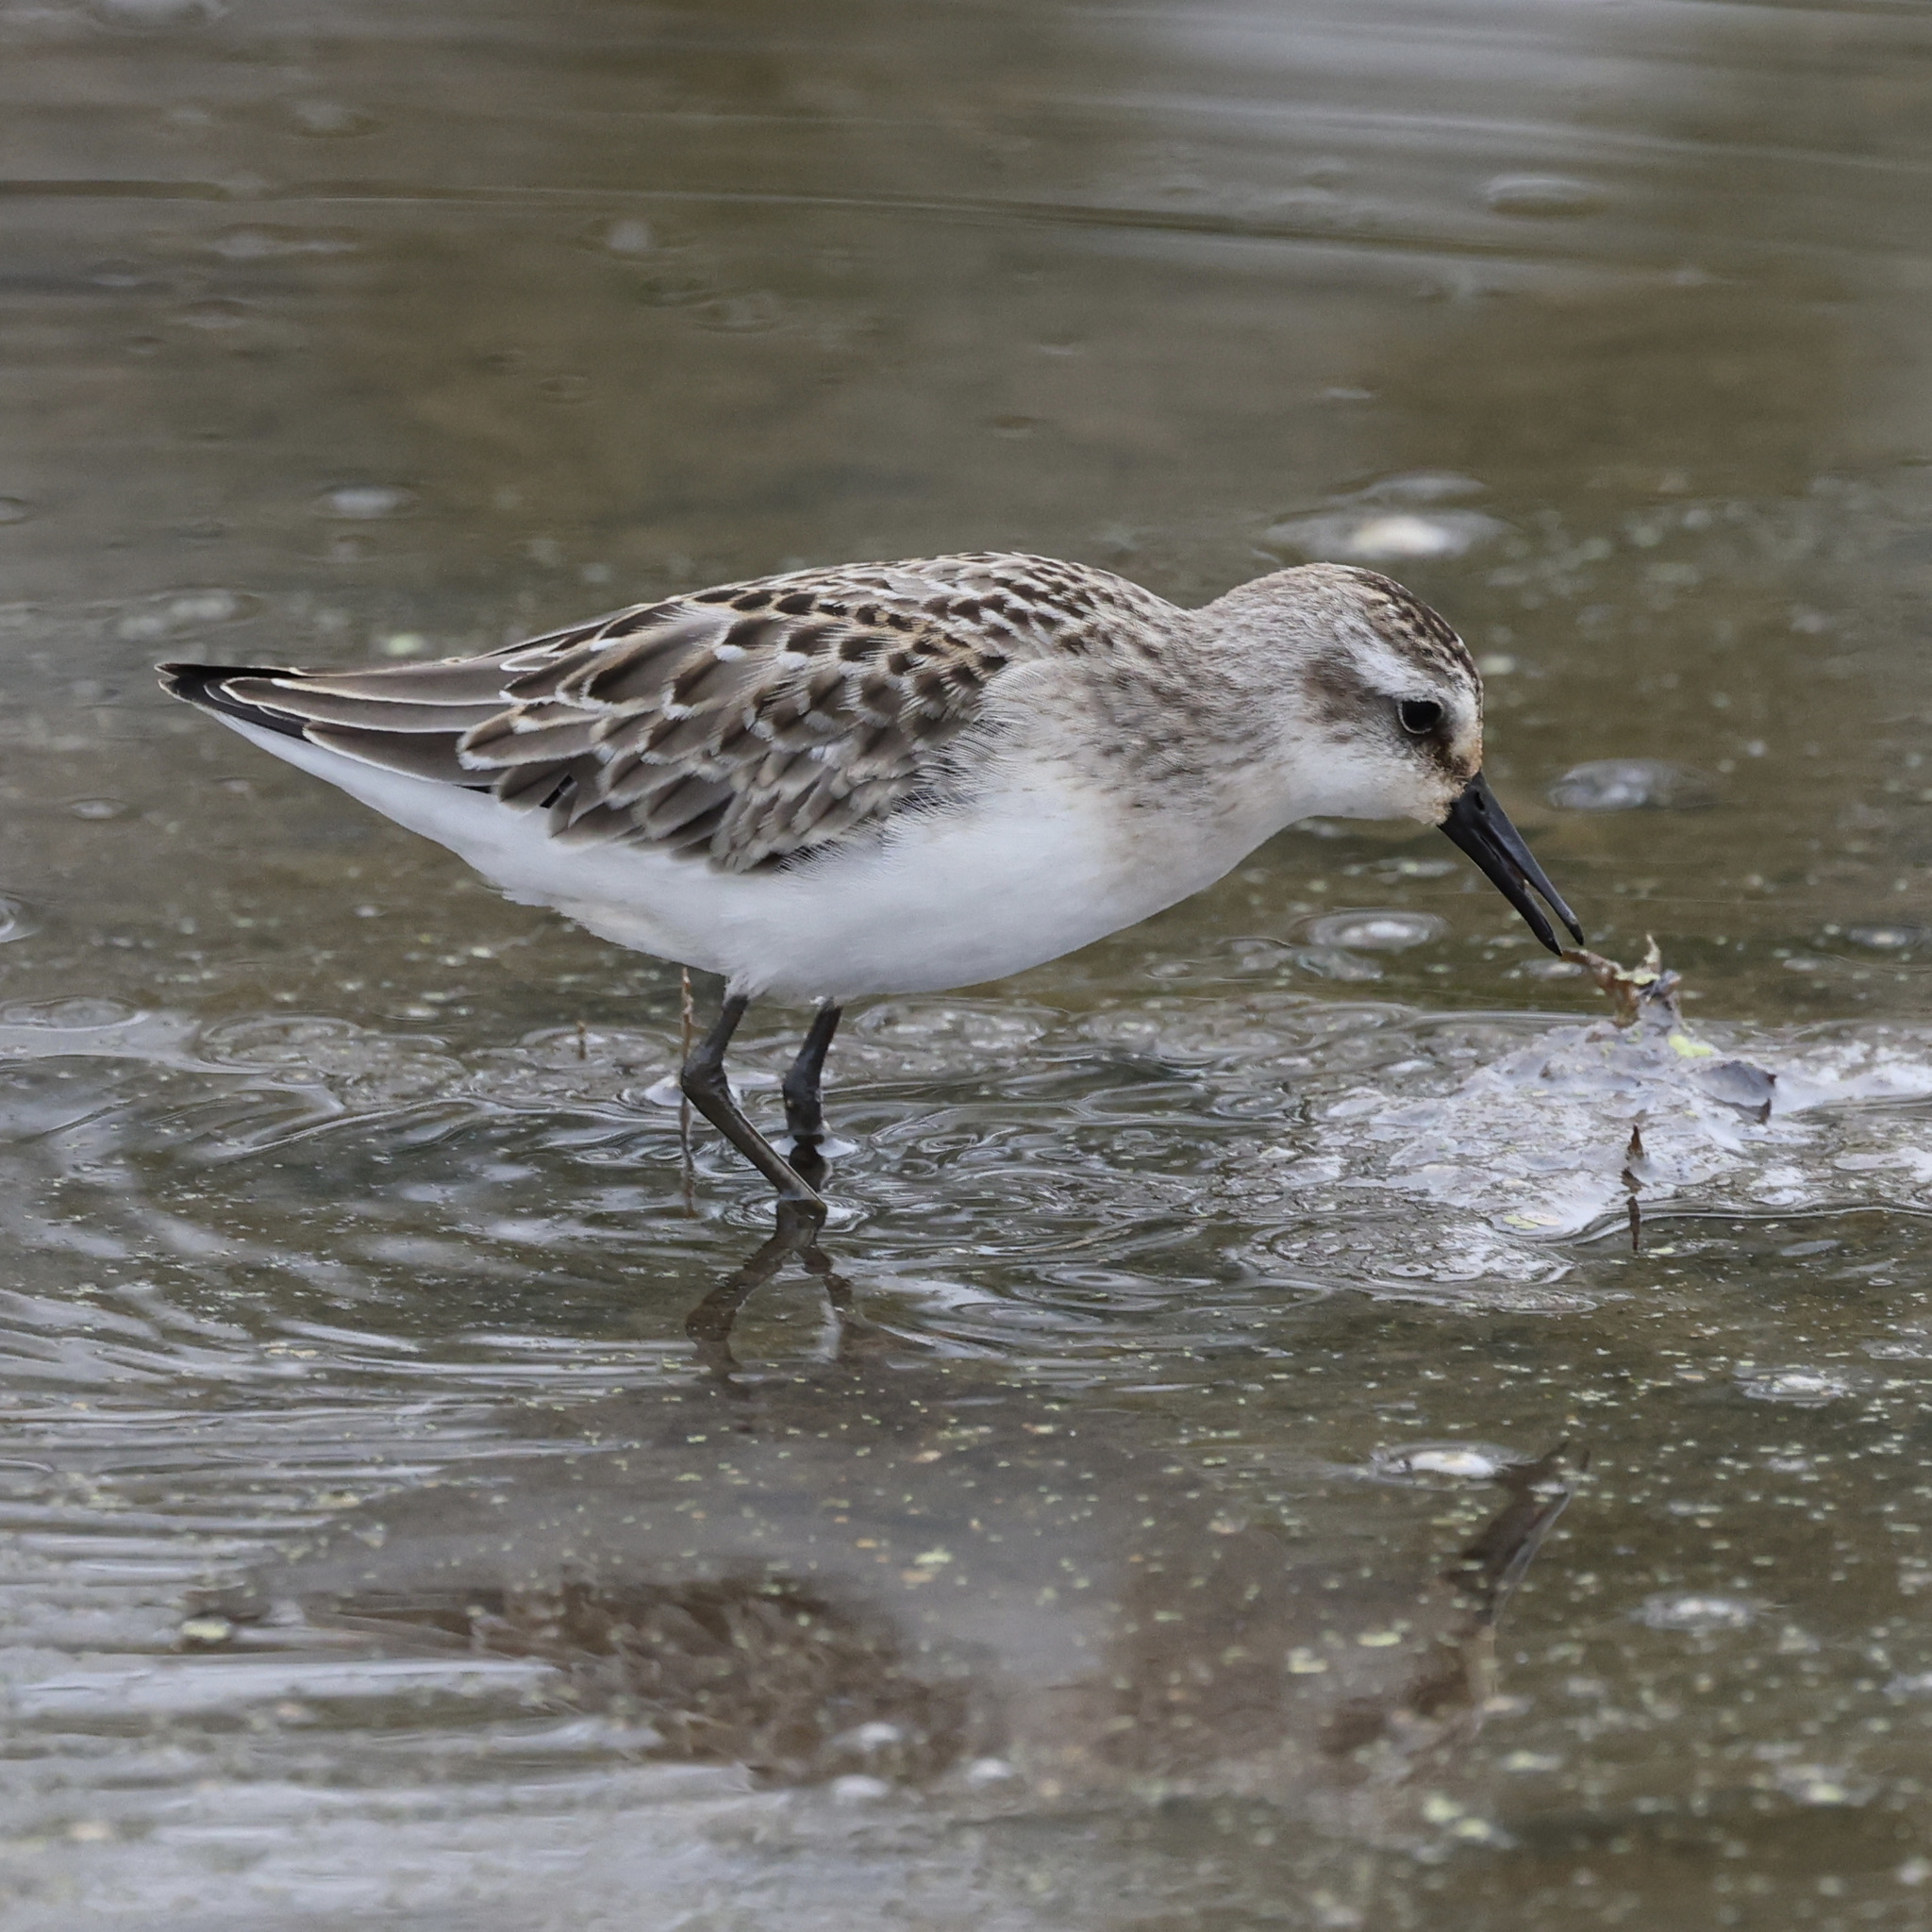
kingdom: Animalia
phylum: Chordata
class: Aves
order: Charadriiformes
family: Scolopacidae
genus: Calidris
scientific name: Calidris pusilla
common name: Semipalmated sandpiper
